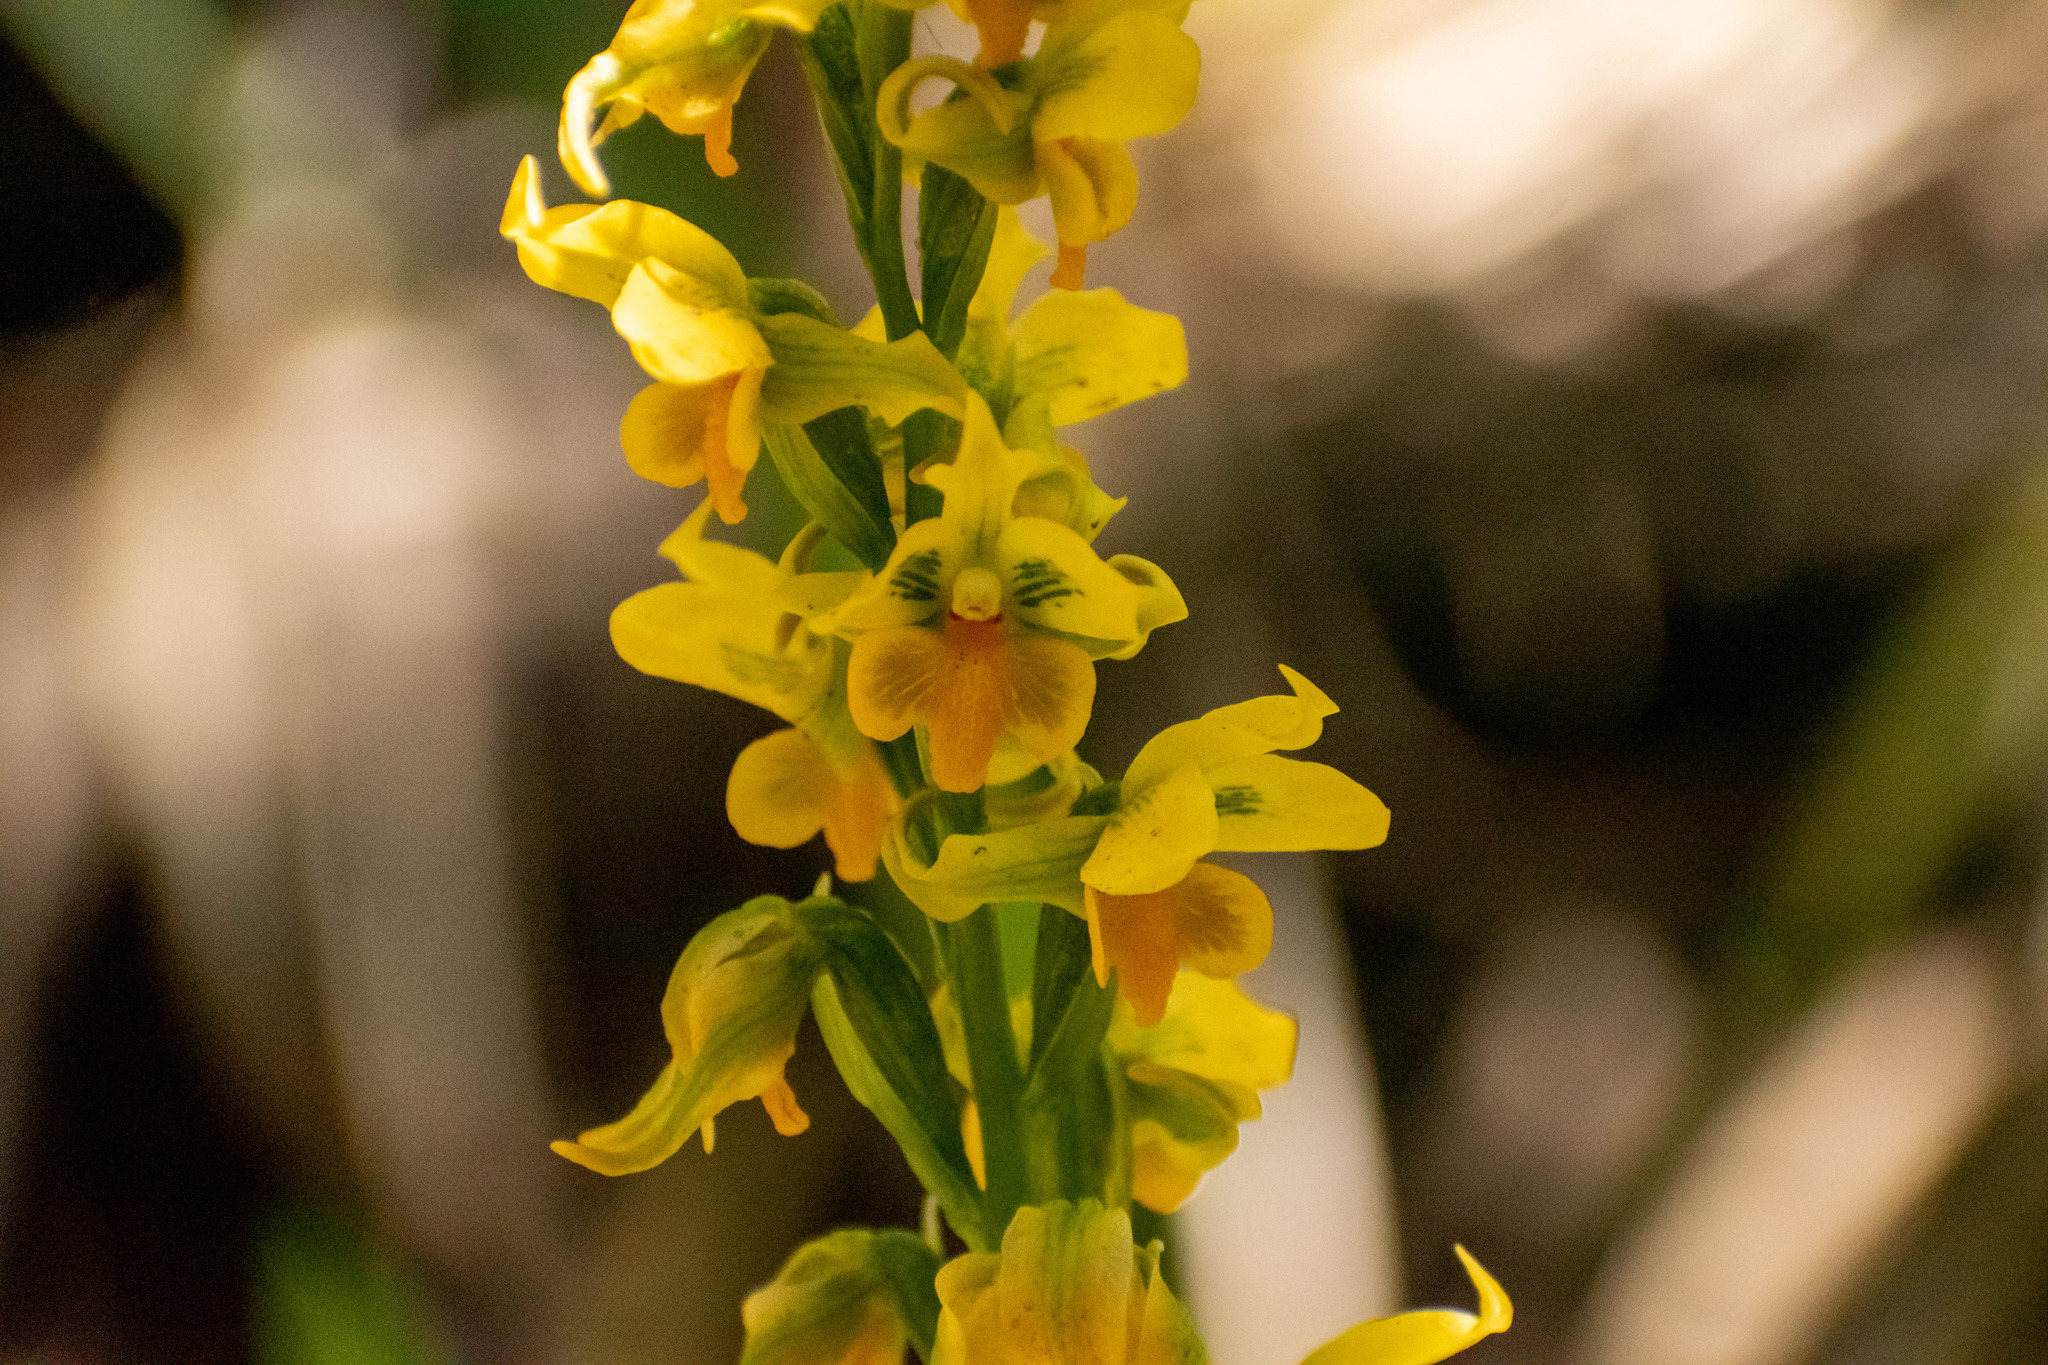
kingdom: Plantae
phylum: Tracheophyta
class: Liliopsida
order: Asparagales
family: Orchidaceae
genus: Gavilea
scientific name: Gavilea odoratissima
